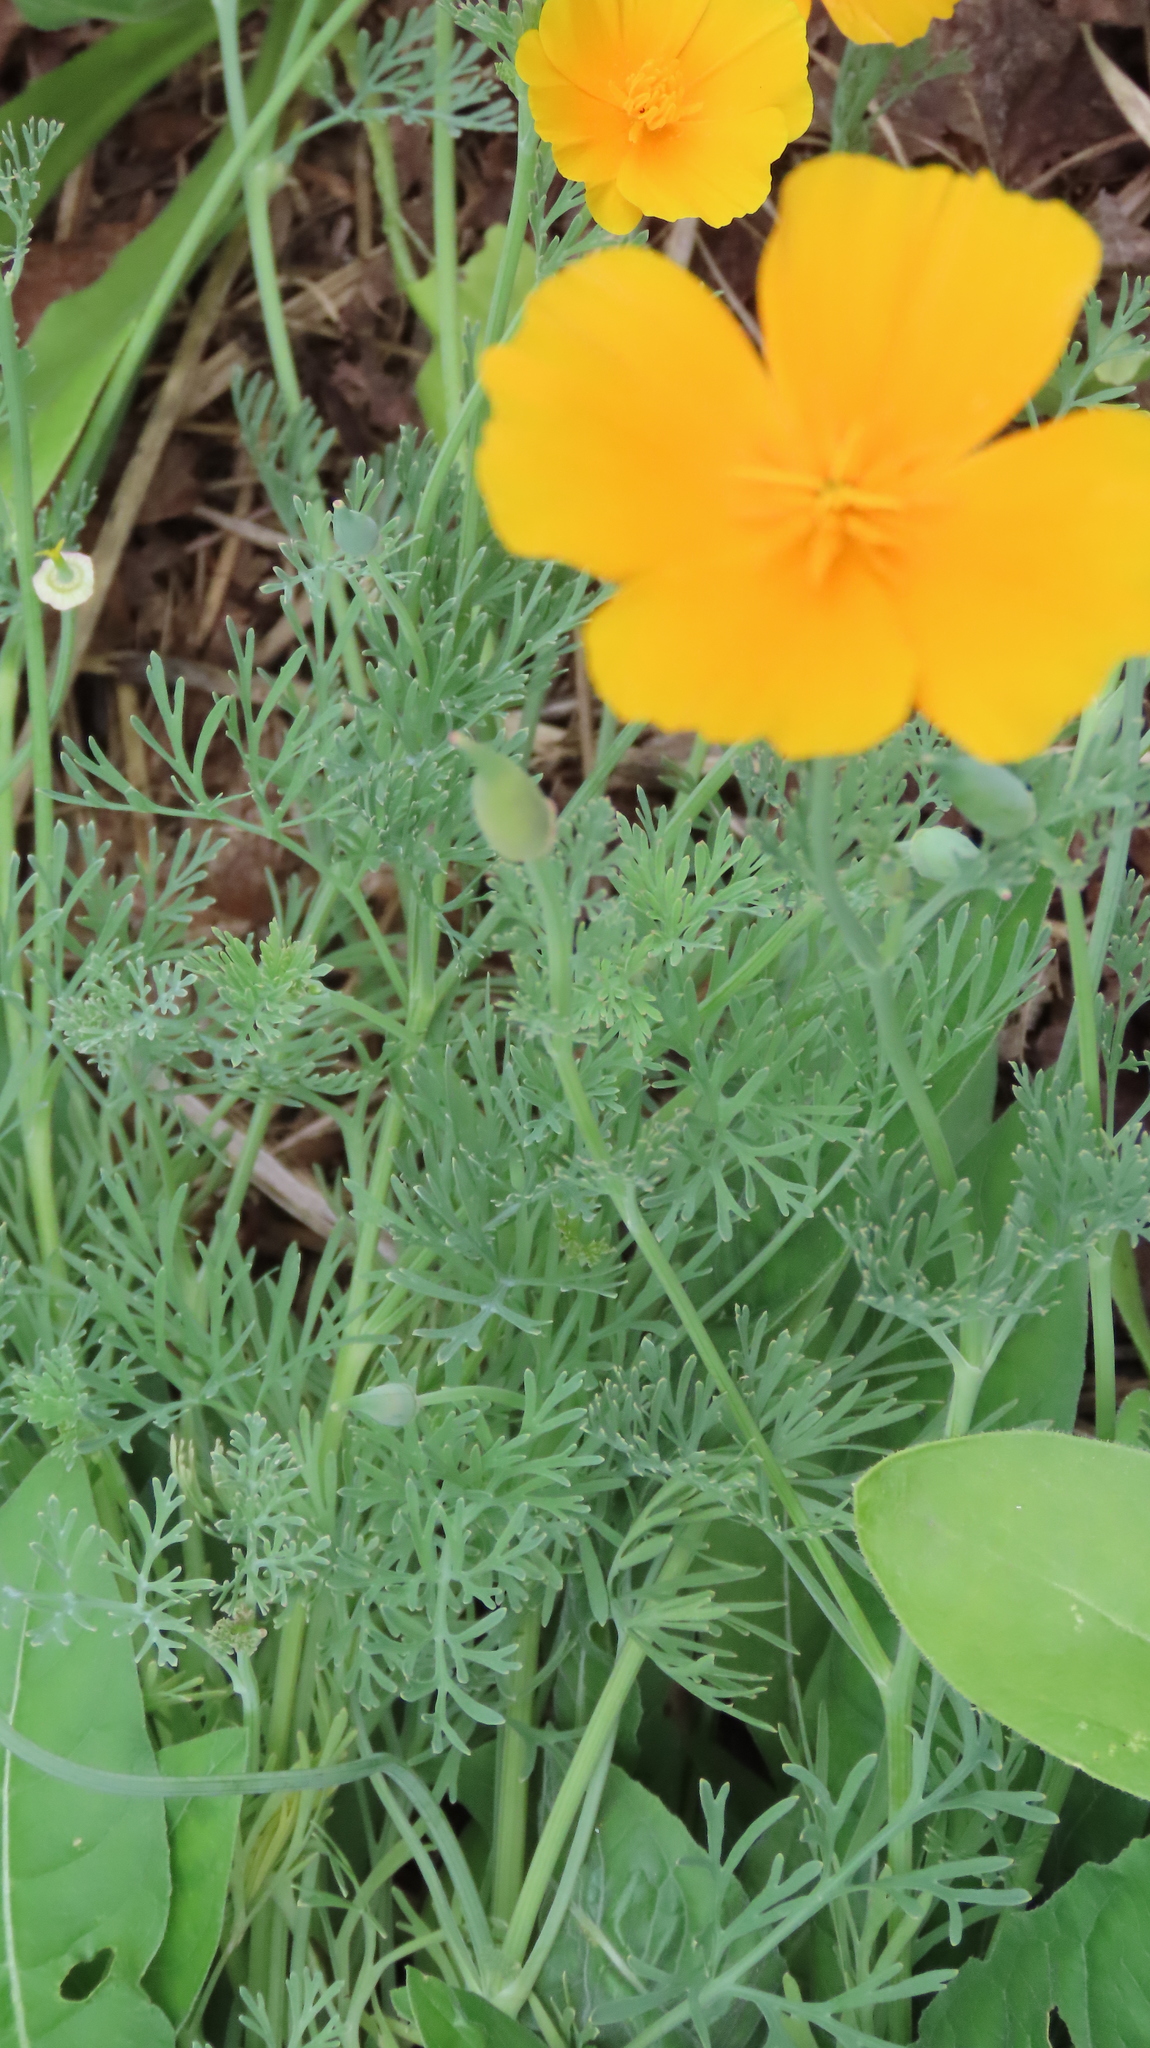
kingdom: Plantae
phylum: Tracheophyta
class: Magnoliopsida
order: Ranunculales
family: Papaveraceae
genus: Eschscholzia
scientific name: Eschscholzia californica
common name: California poppy
